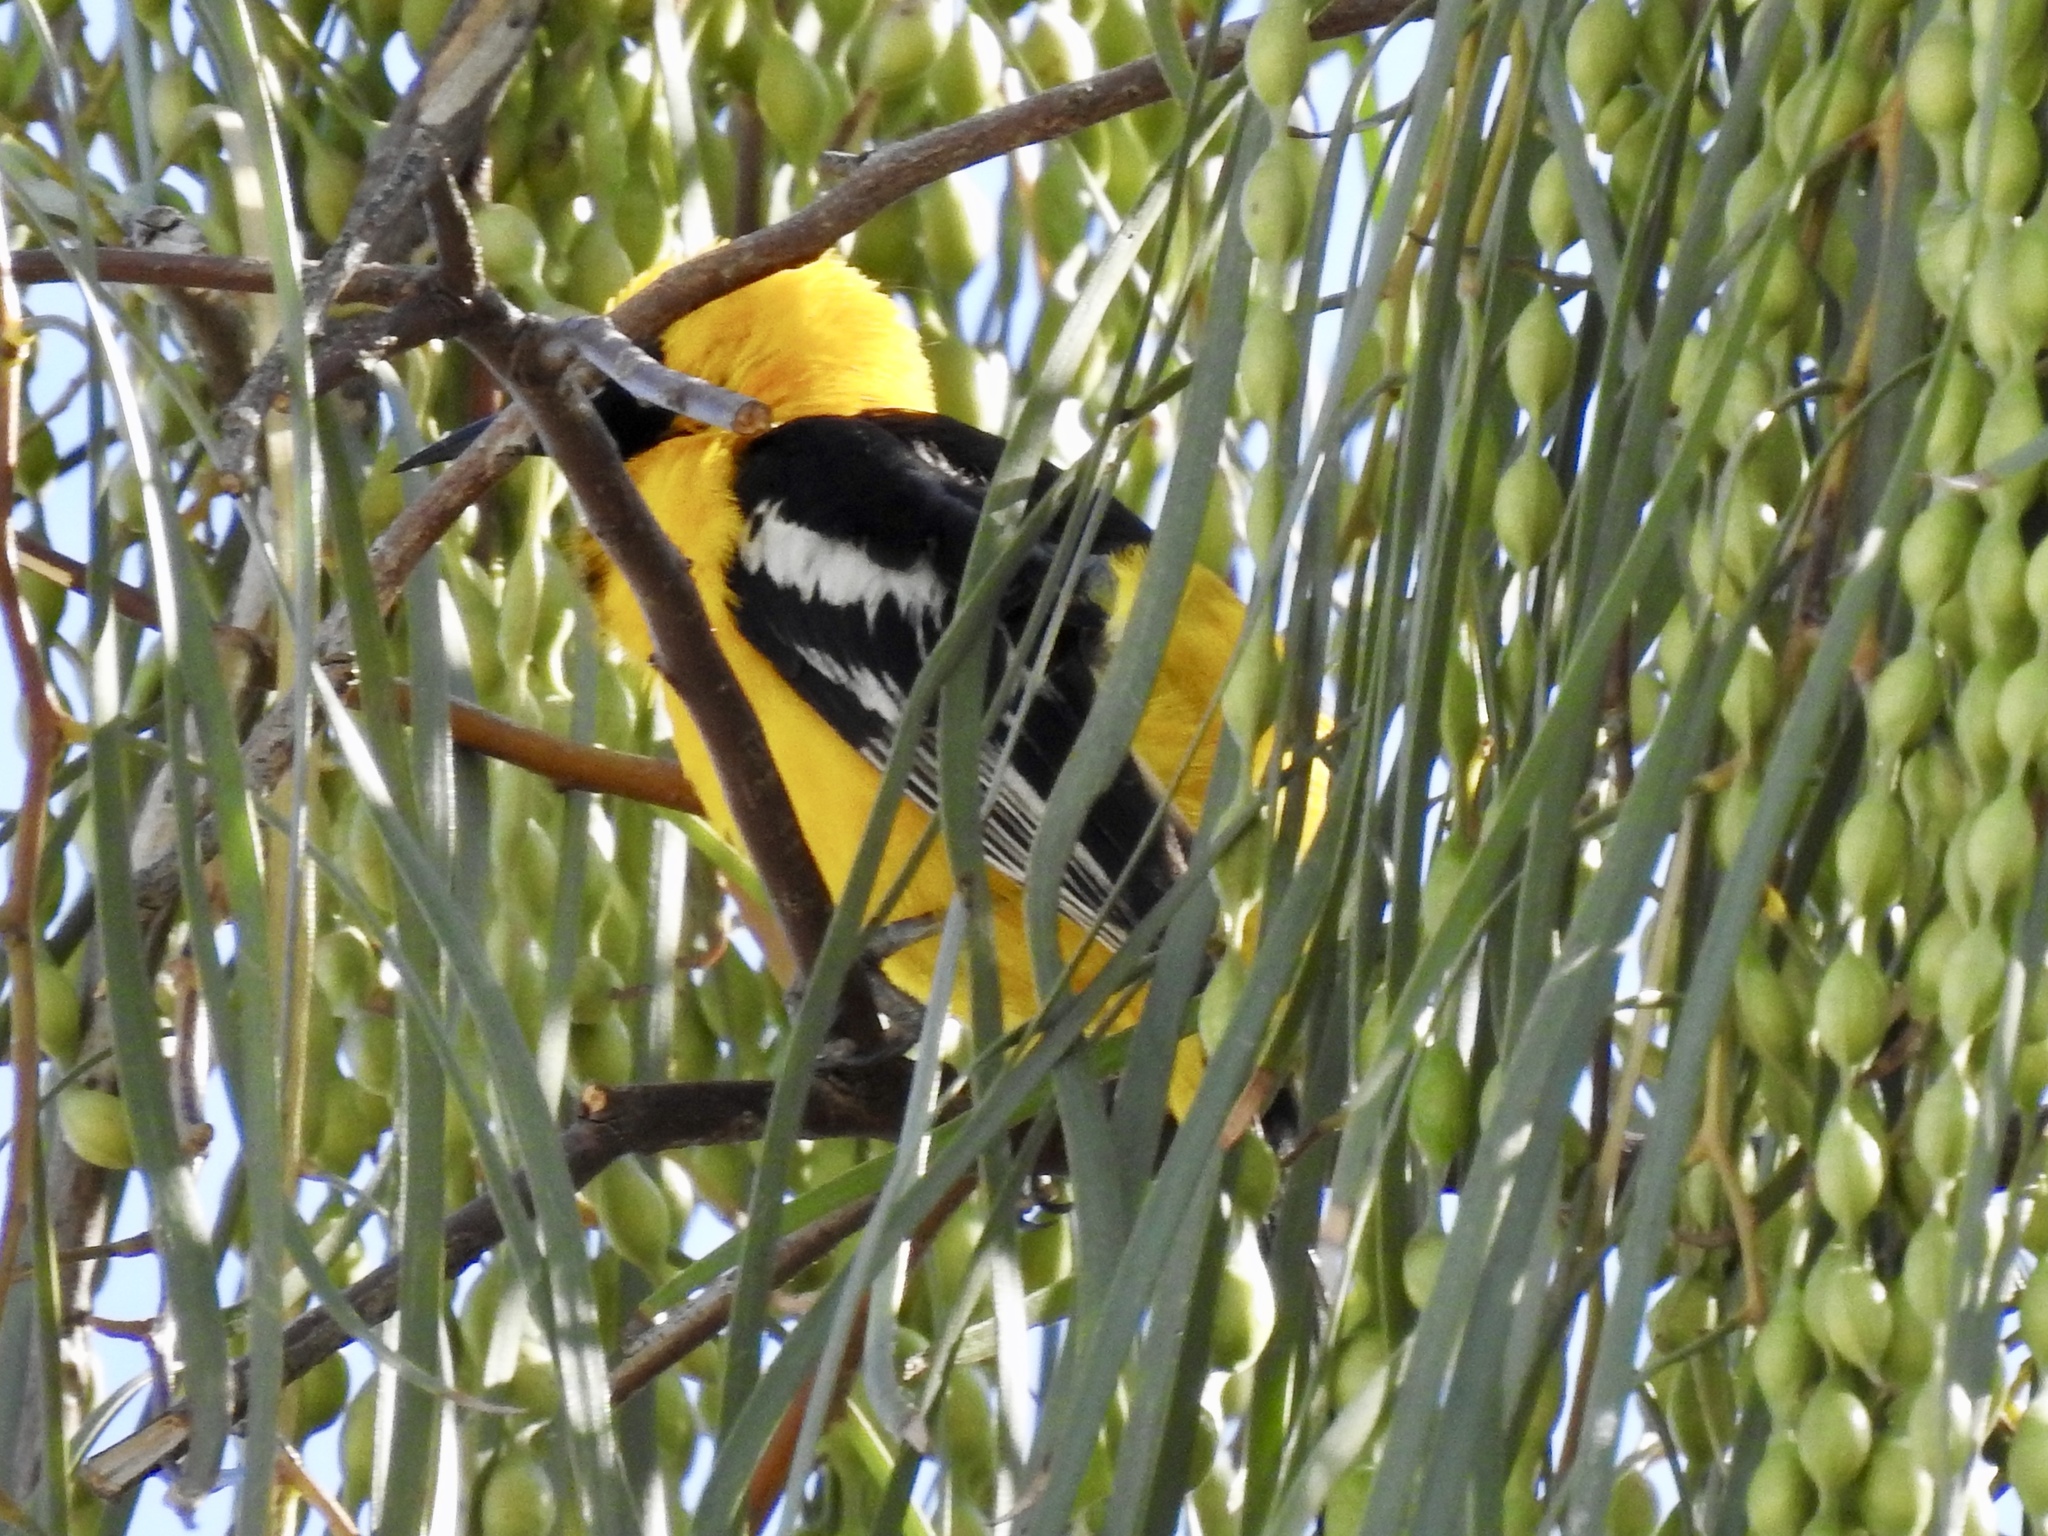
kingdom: Animalia
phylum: Chordata
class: Aves
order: Passeriformes
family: Icteridae
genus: Icterus
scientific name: Icterus cucullatus
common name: Hooded oriole
